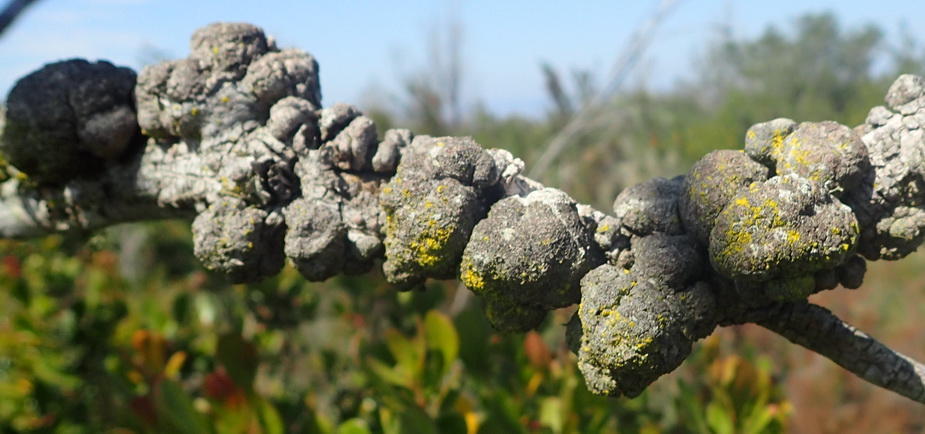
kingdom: Fungi
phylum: Basidiomycota
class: Pucciniomycetes
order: Pucciniales
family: Uromycladiaceae
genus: Uromycladium
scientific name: Uromycladium morrisii
